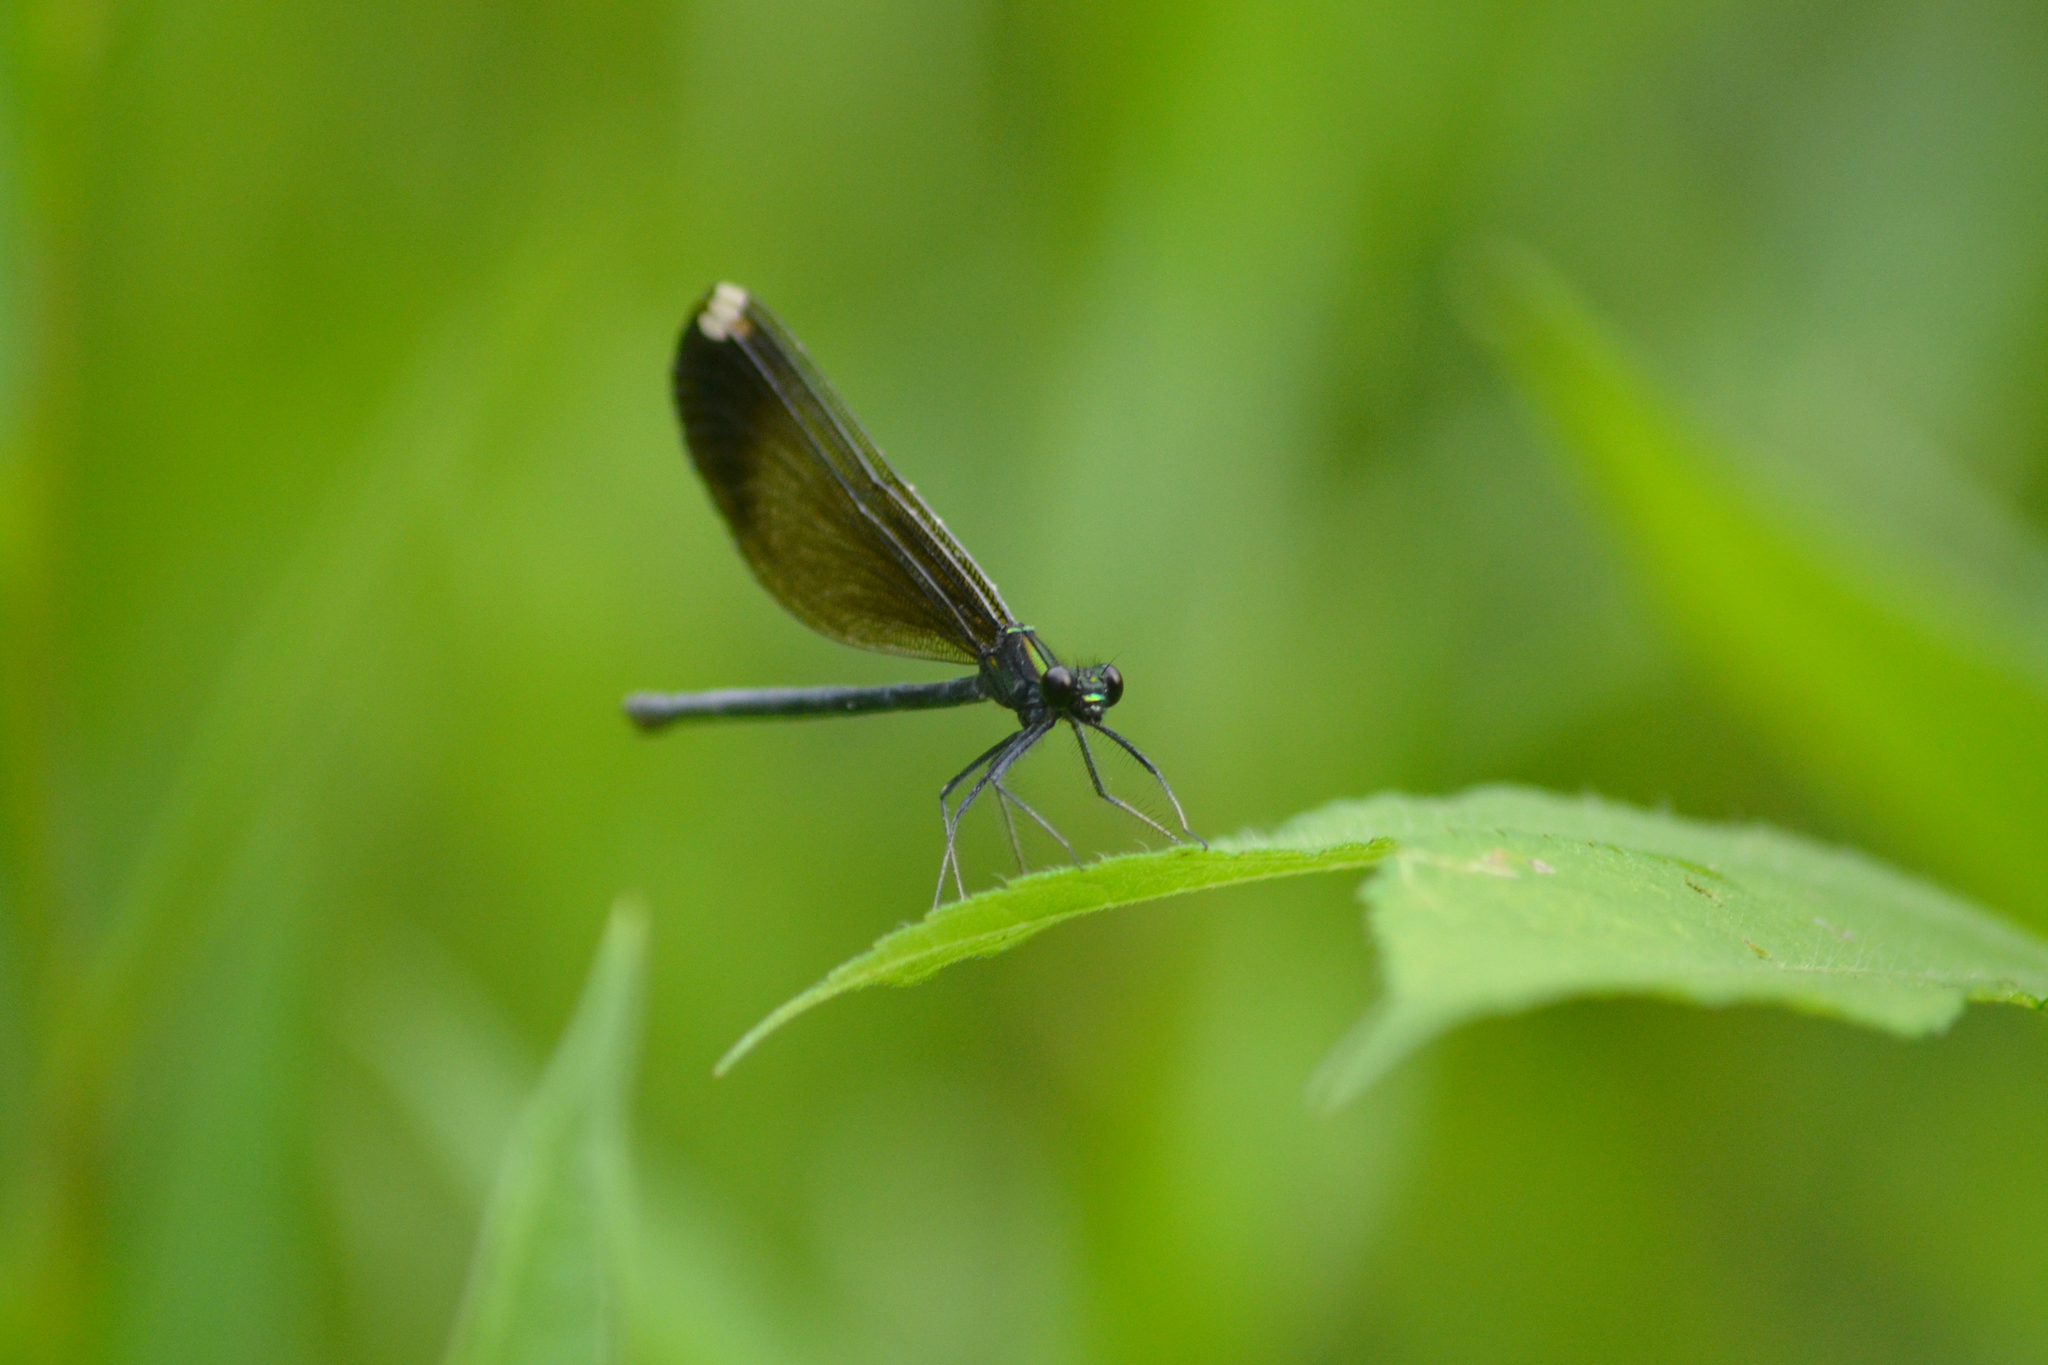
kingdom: Animalia
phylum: Arthropoda
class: Insecta
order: Odonata
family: Calopterygidae
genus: Calopteryx
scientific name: Calopteryx maculata
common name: Ebony jewelwing
